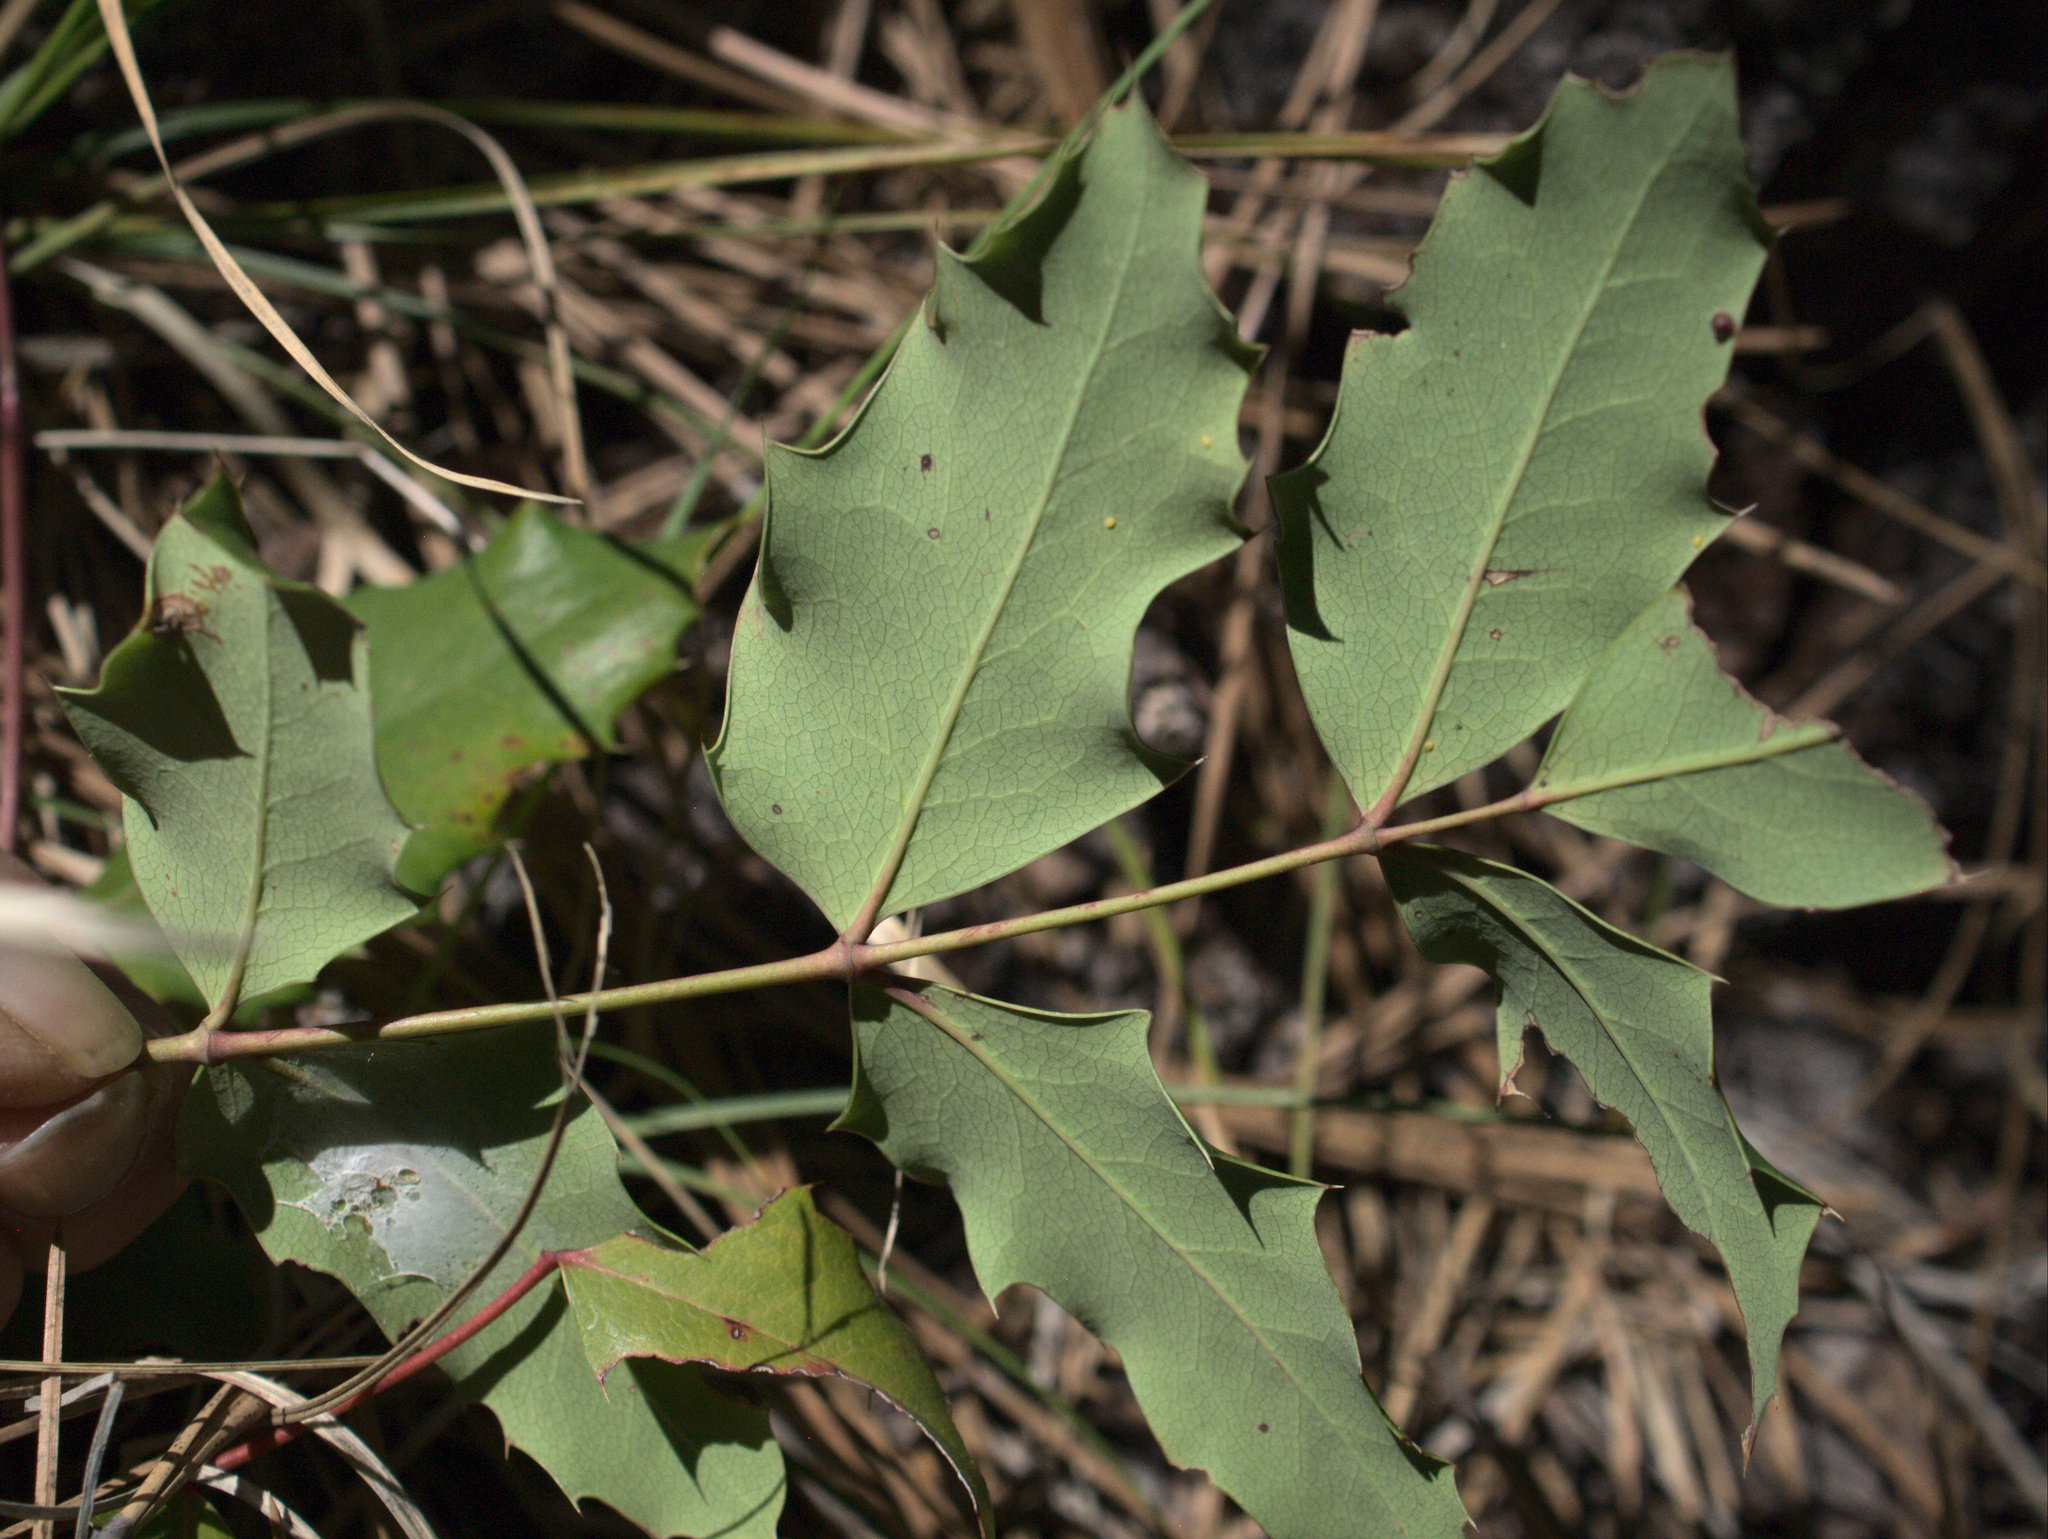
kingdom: Plantae
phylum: Tracheophyta
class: Magnoliopsida
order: Ranunculales
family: Berberidaceae
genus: Mahonia
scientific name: Mahonia repens
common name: Creeping oregon-grape
